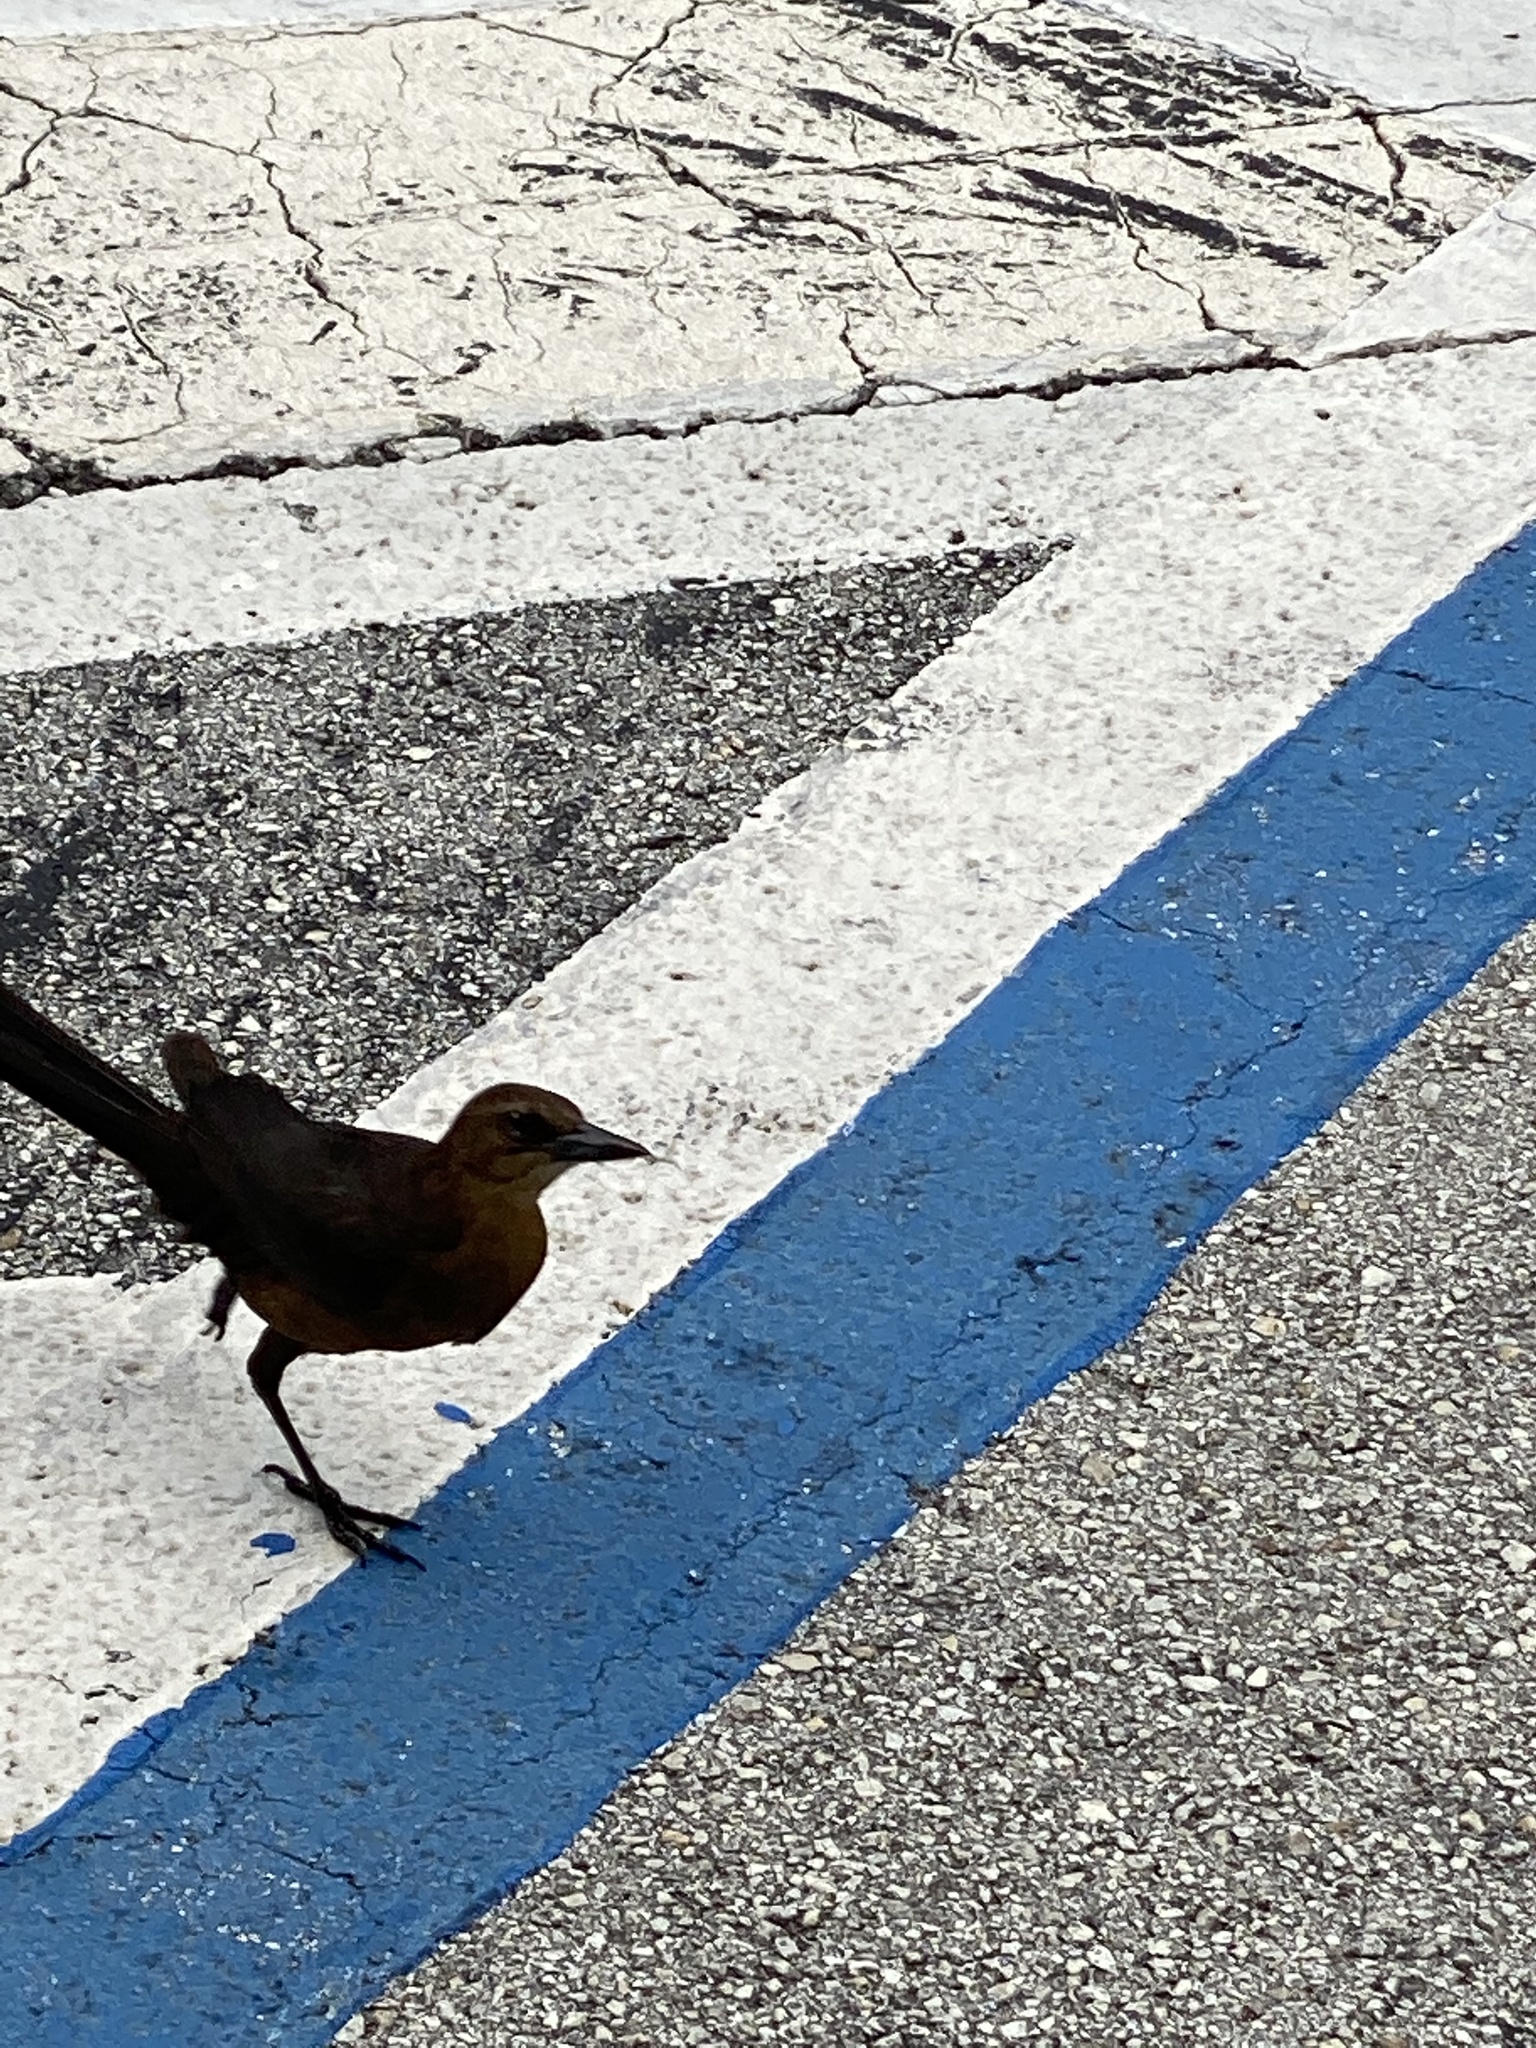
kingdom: Animalia
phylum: Chordata
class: Aves
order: Passeriformes
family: Icteridae
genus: Quiscalus
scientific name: Quiscalus major
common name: Boat-tailed grackle
